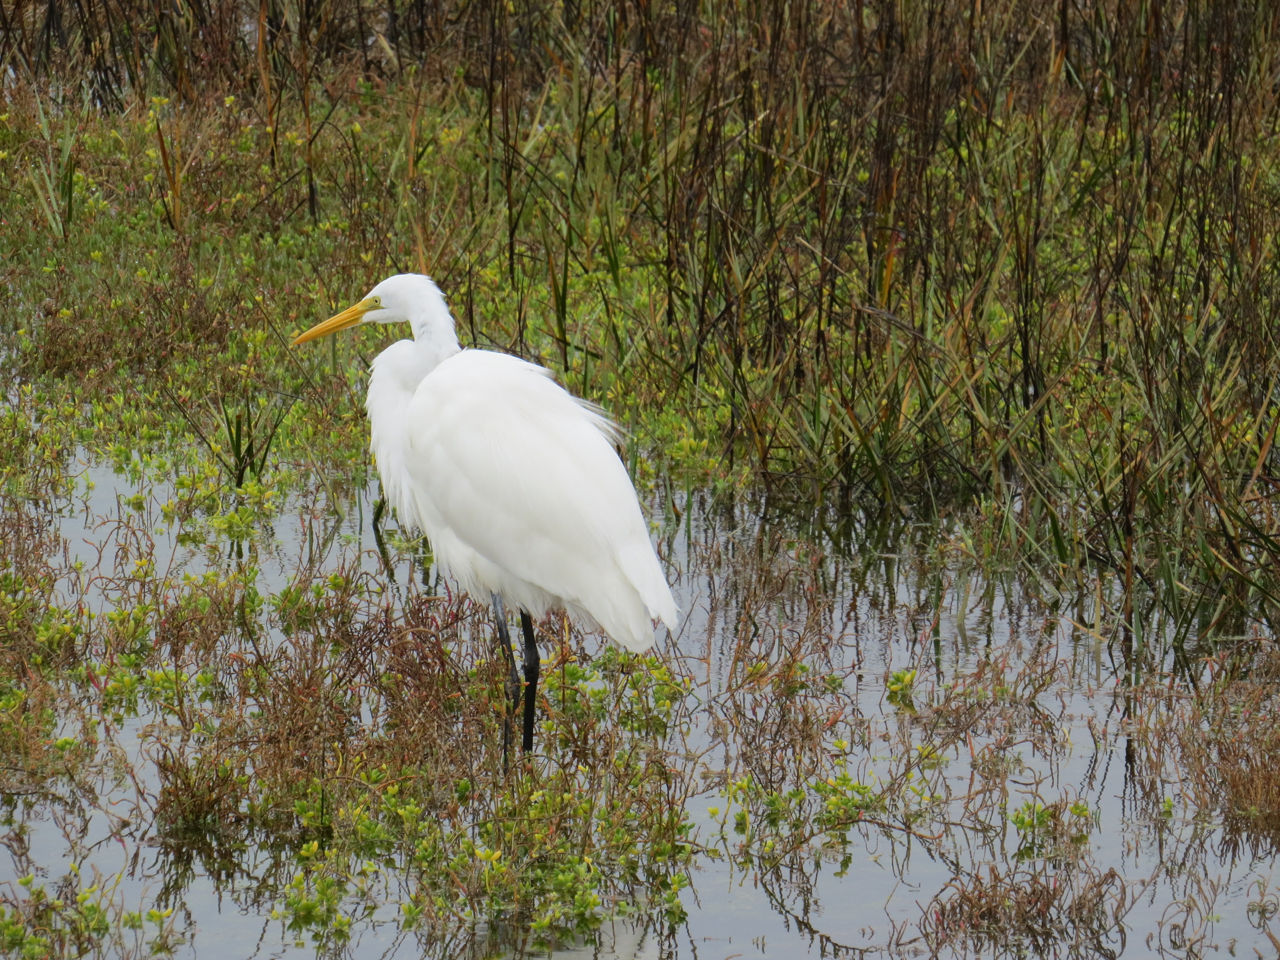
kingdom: Animalia
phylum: Chordata
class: Aves
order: Pelecaniformes
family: Ardeidae
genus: Ardea
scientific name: Ardea alba
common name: Great egret
